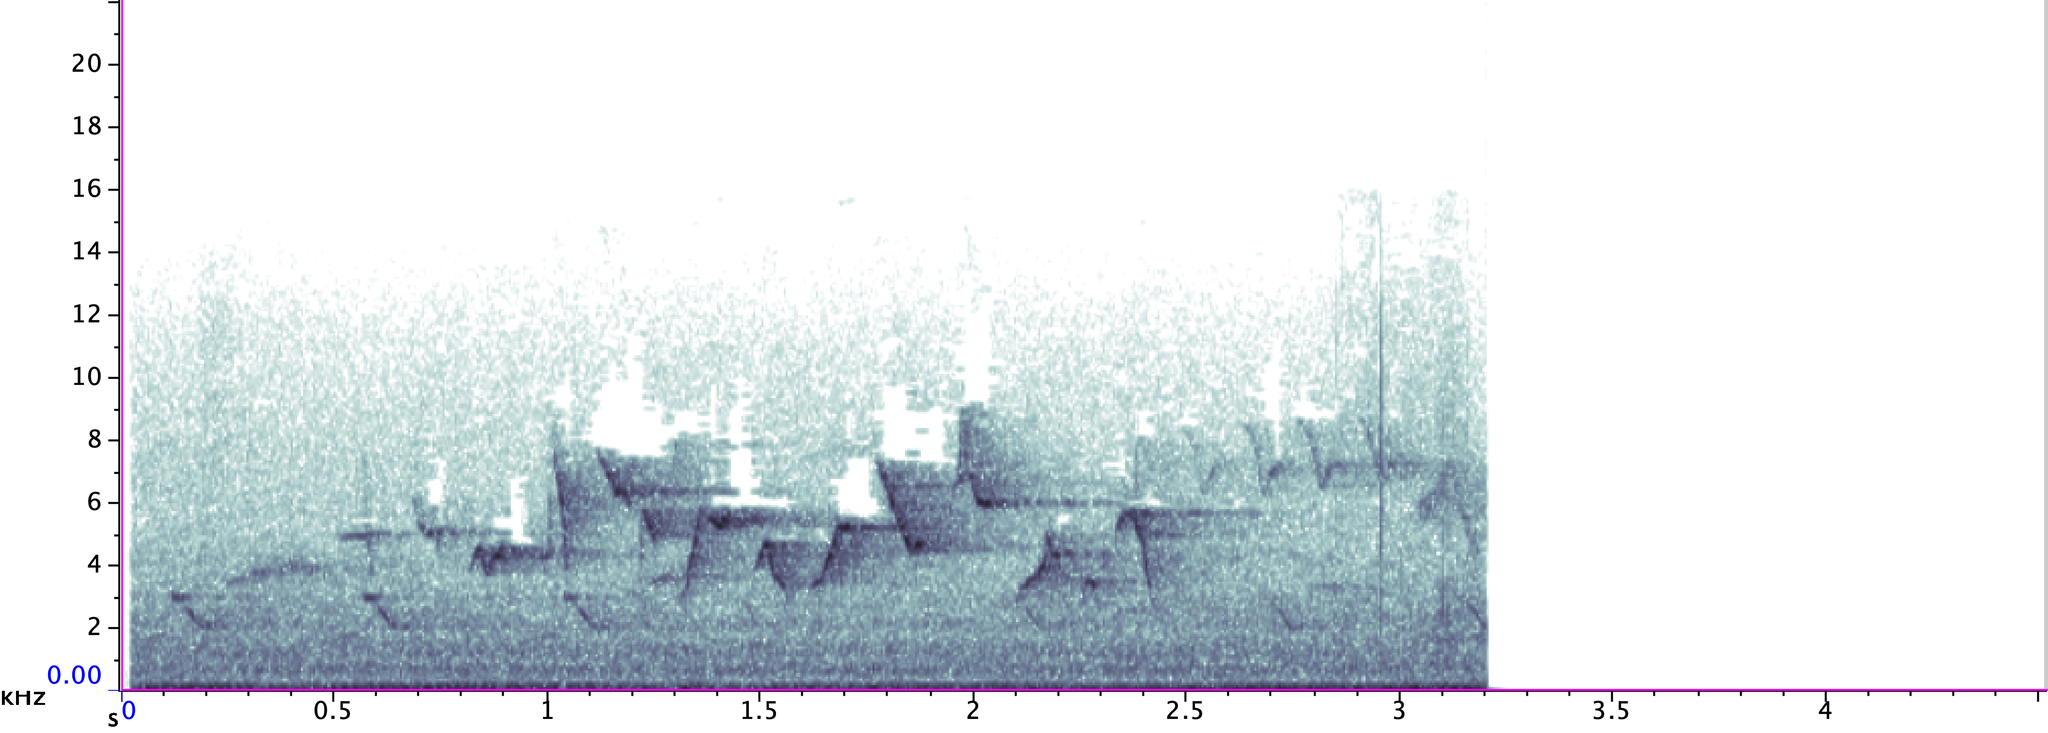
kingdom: Animalia
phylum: Chordata
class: Aves
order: Passeriformes
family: Vireonidae
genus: Vireo
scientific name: Vireo gilvus
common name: Warbling vireo
